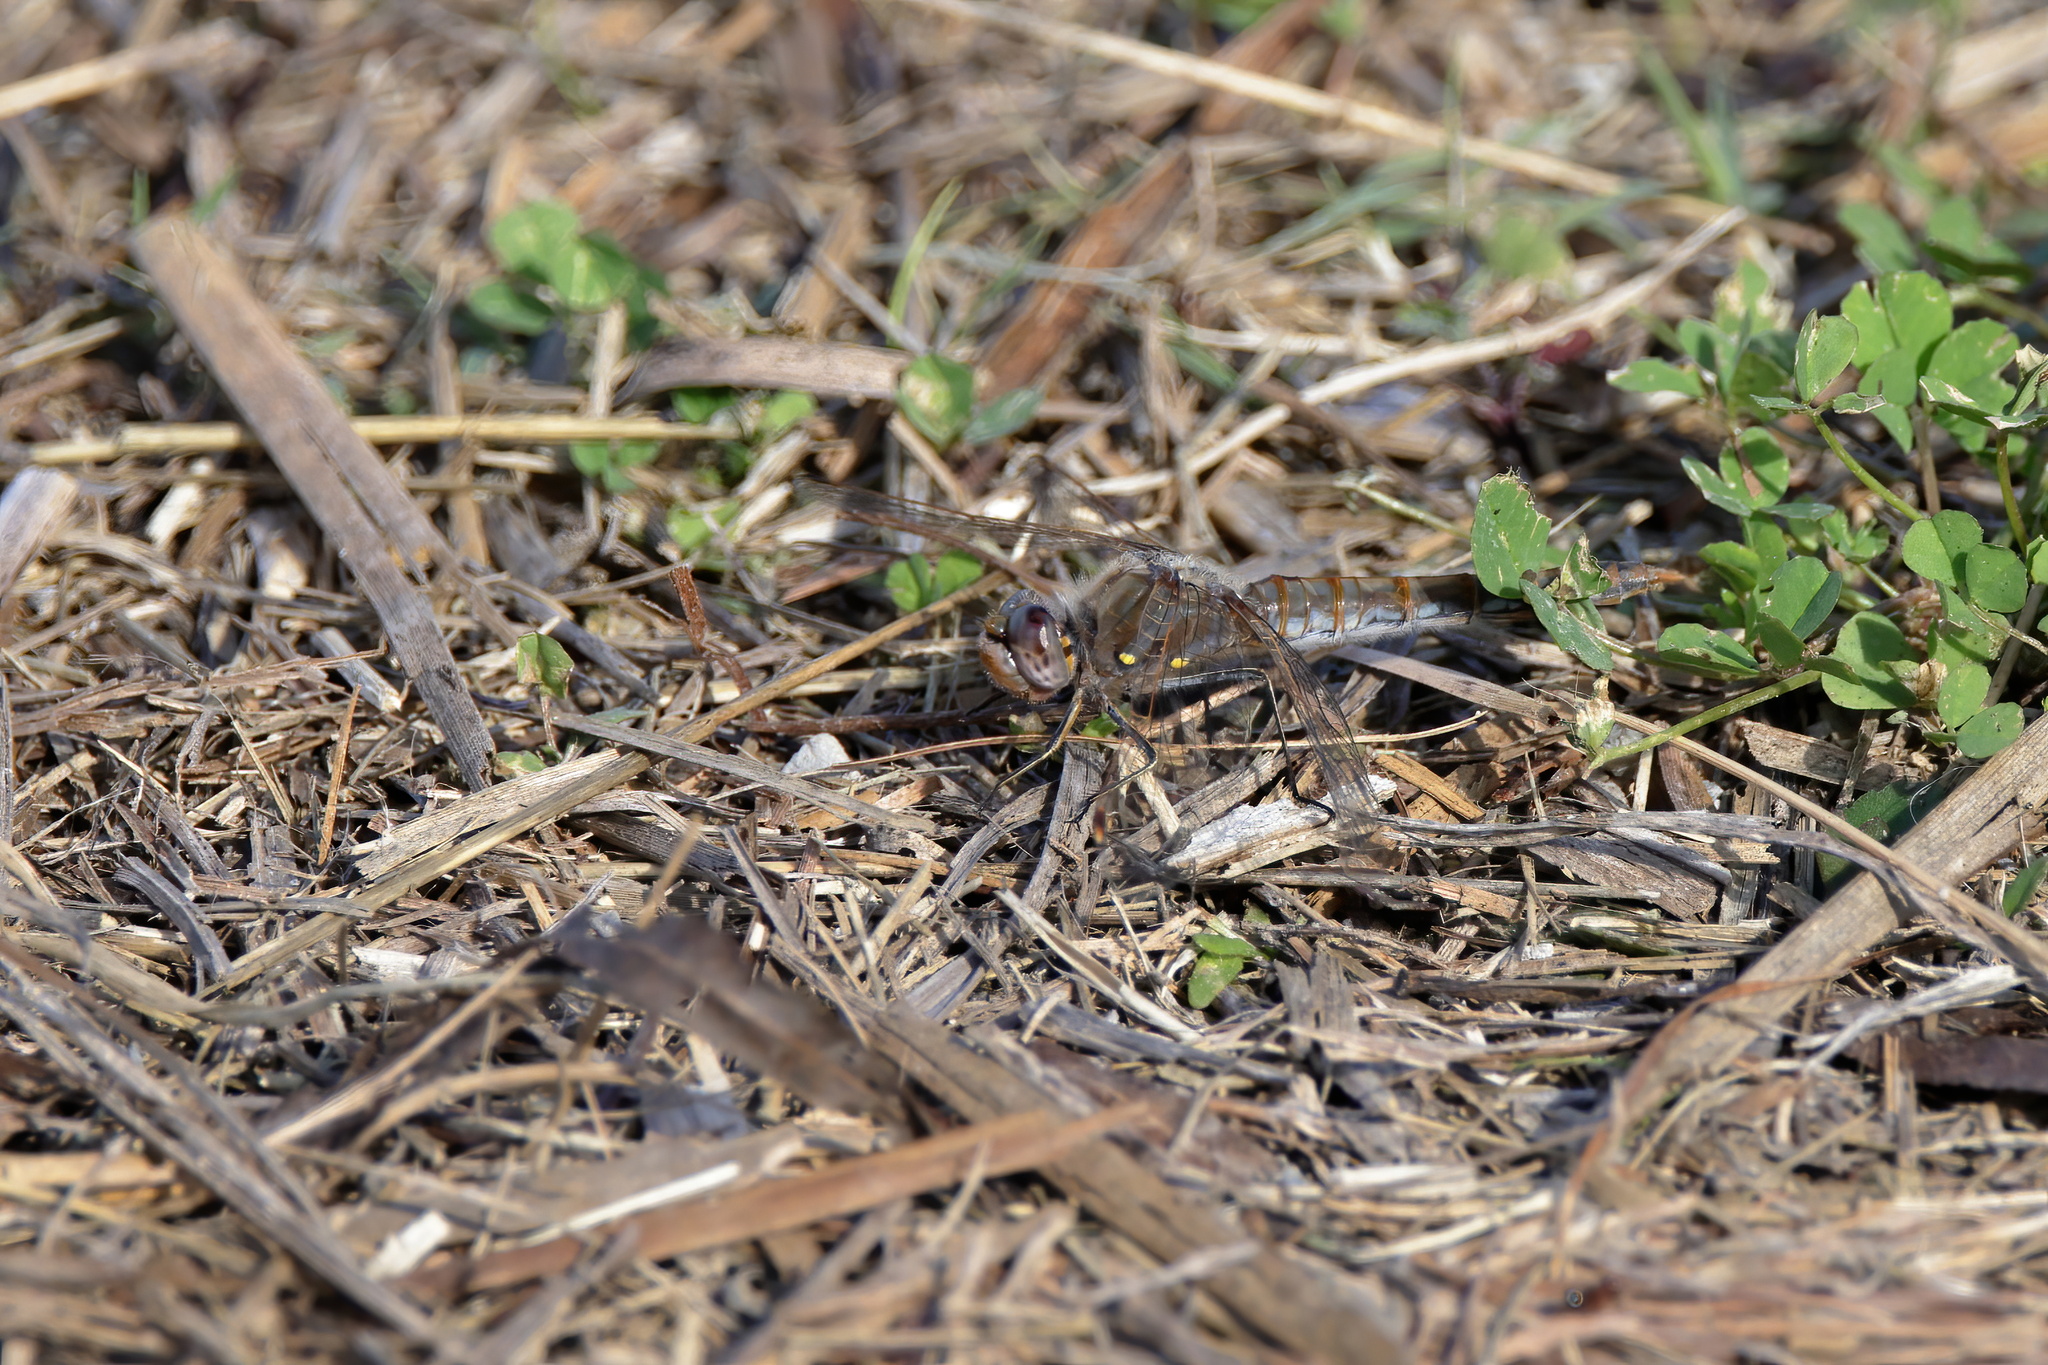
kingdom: Animalia
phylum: Arthropoda
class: Insecta
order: Odonata
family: Libellulidae
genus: Sympetrum
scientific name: Sympetrum corruptum
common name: Variegated meadowhawk
